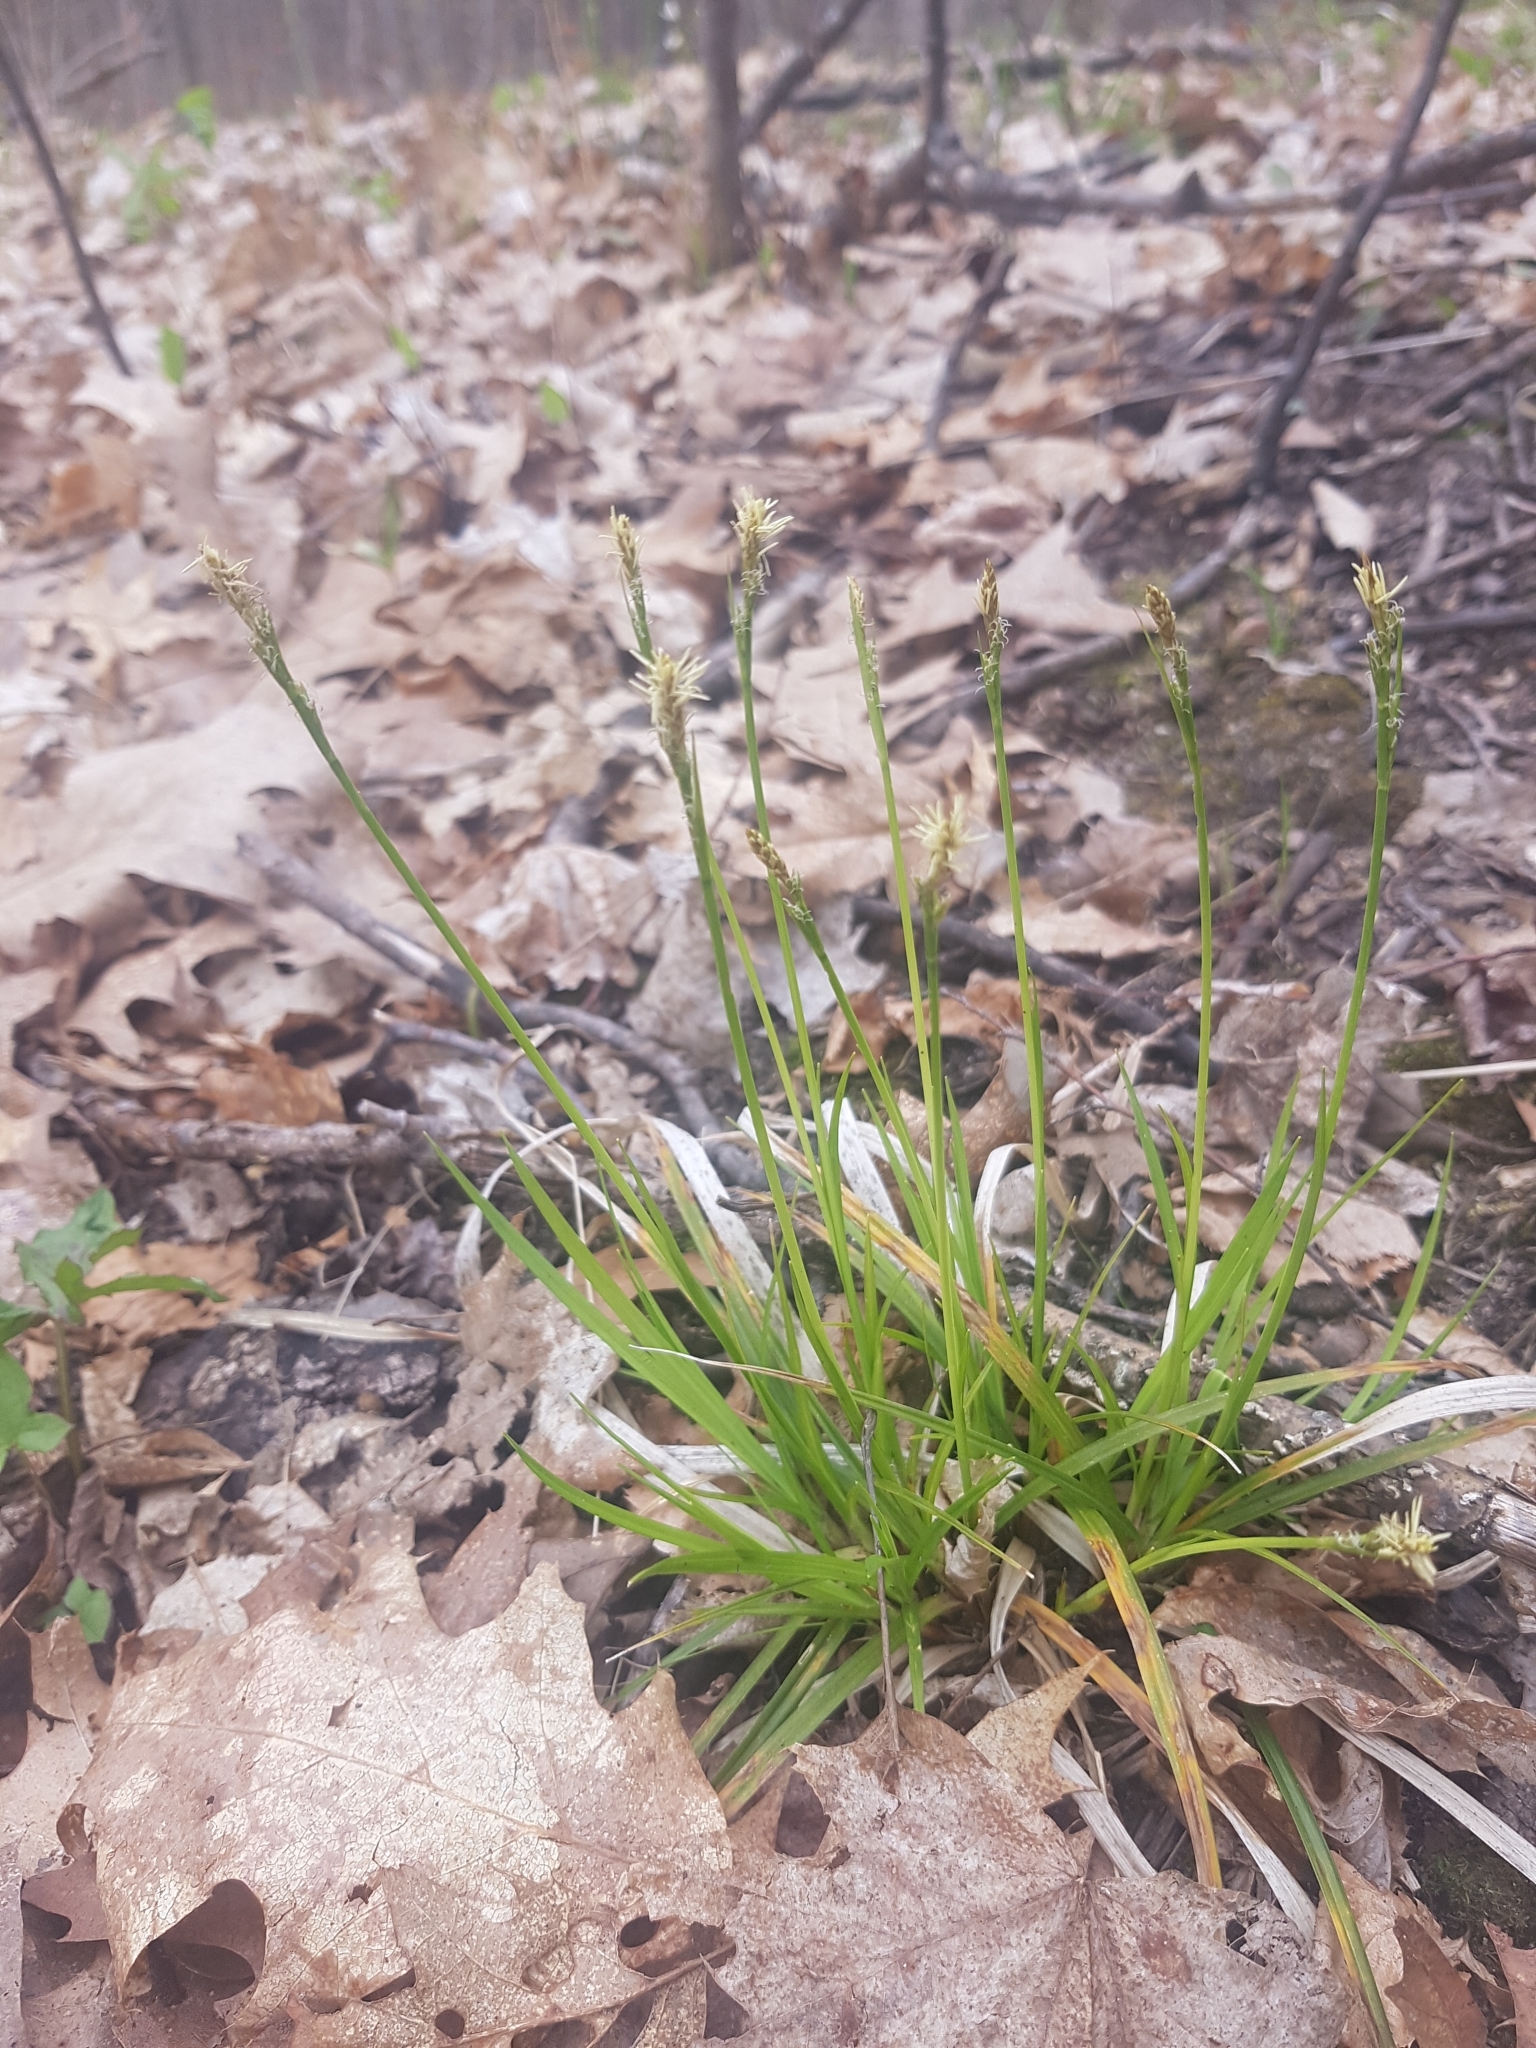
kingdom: Plantae
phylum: Tracheophyta
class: Liliopsida
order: Poales
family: Cyperaceae
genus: Carex
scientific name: Carex communis
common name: Colonial oak sedge
